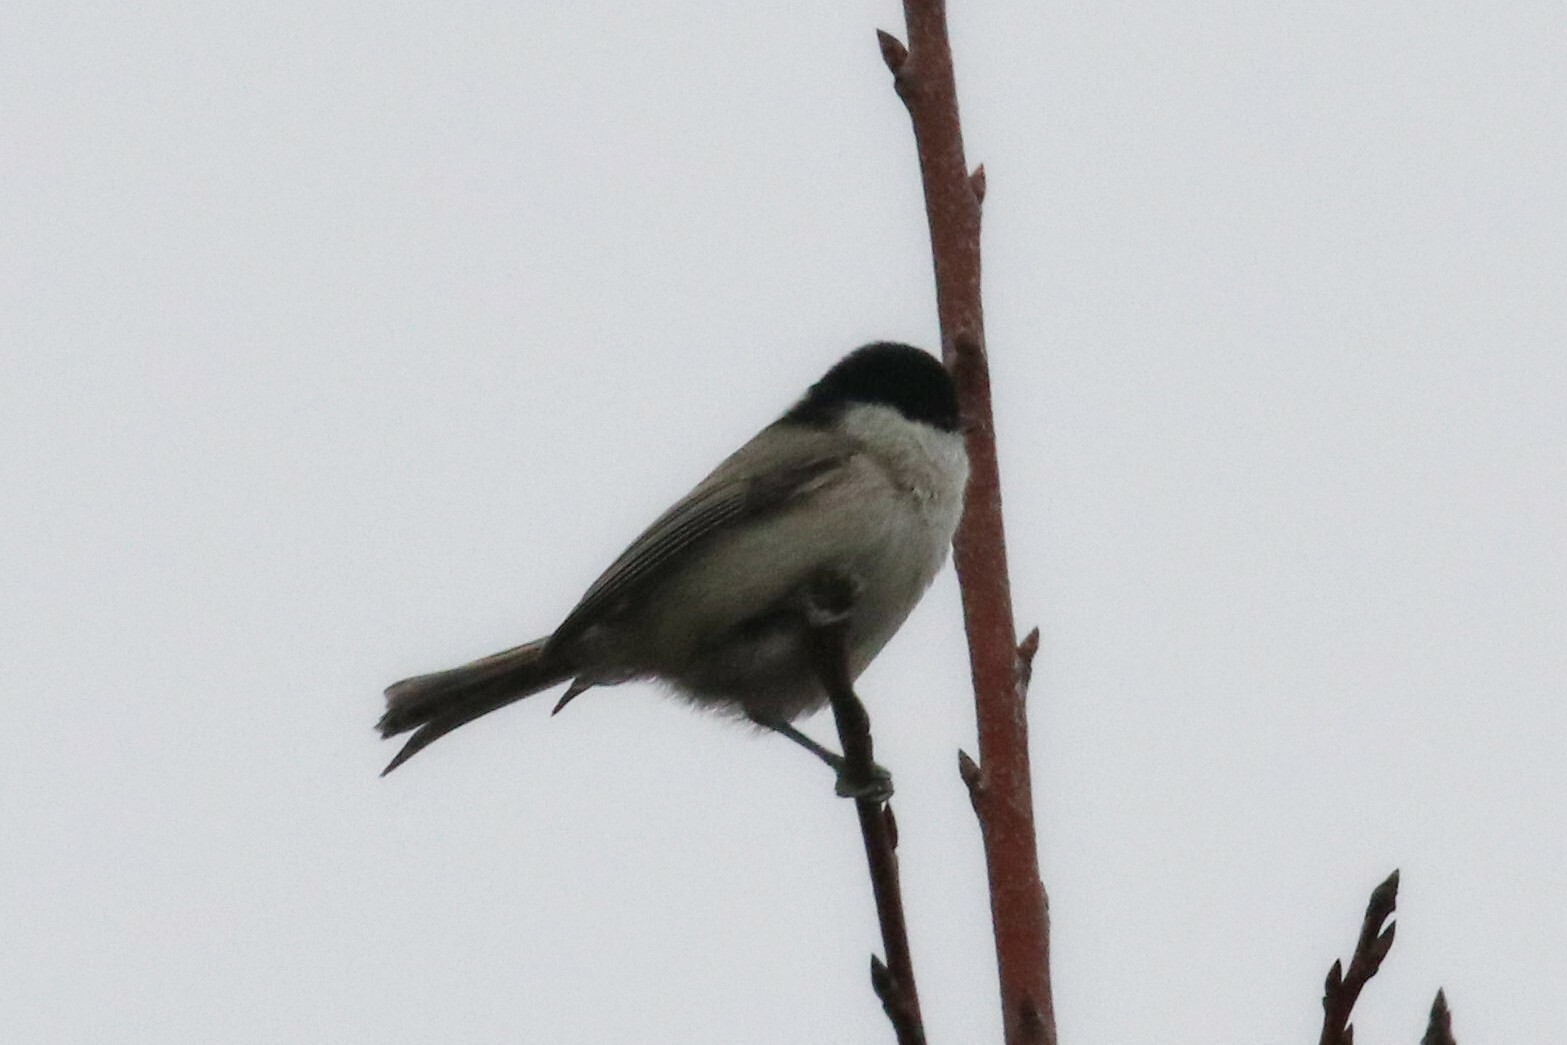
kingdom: Animalia
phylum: Chordata
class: Aves
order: Passeriformes
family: Paridae
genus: Poecile
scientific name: Poecile palustris
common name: Marsh tit
